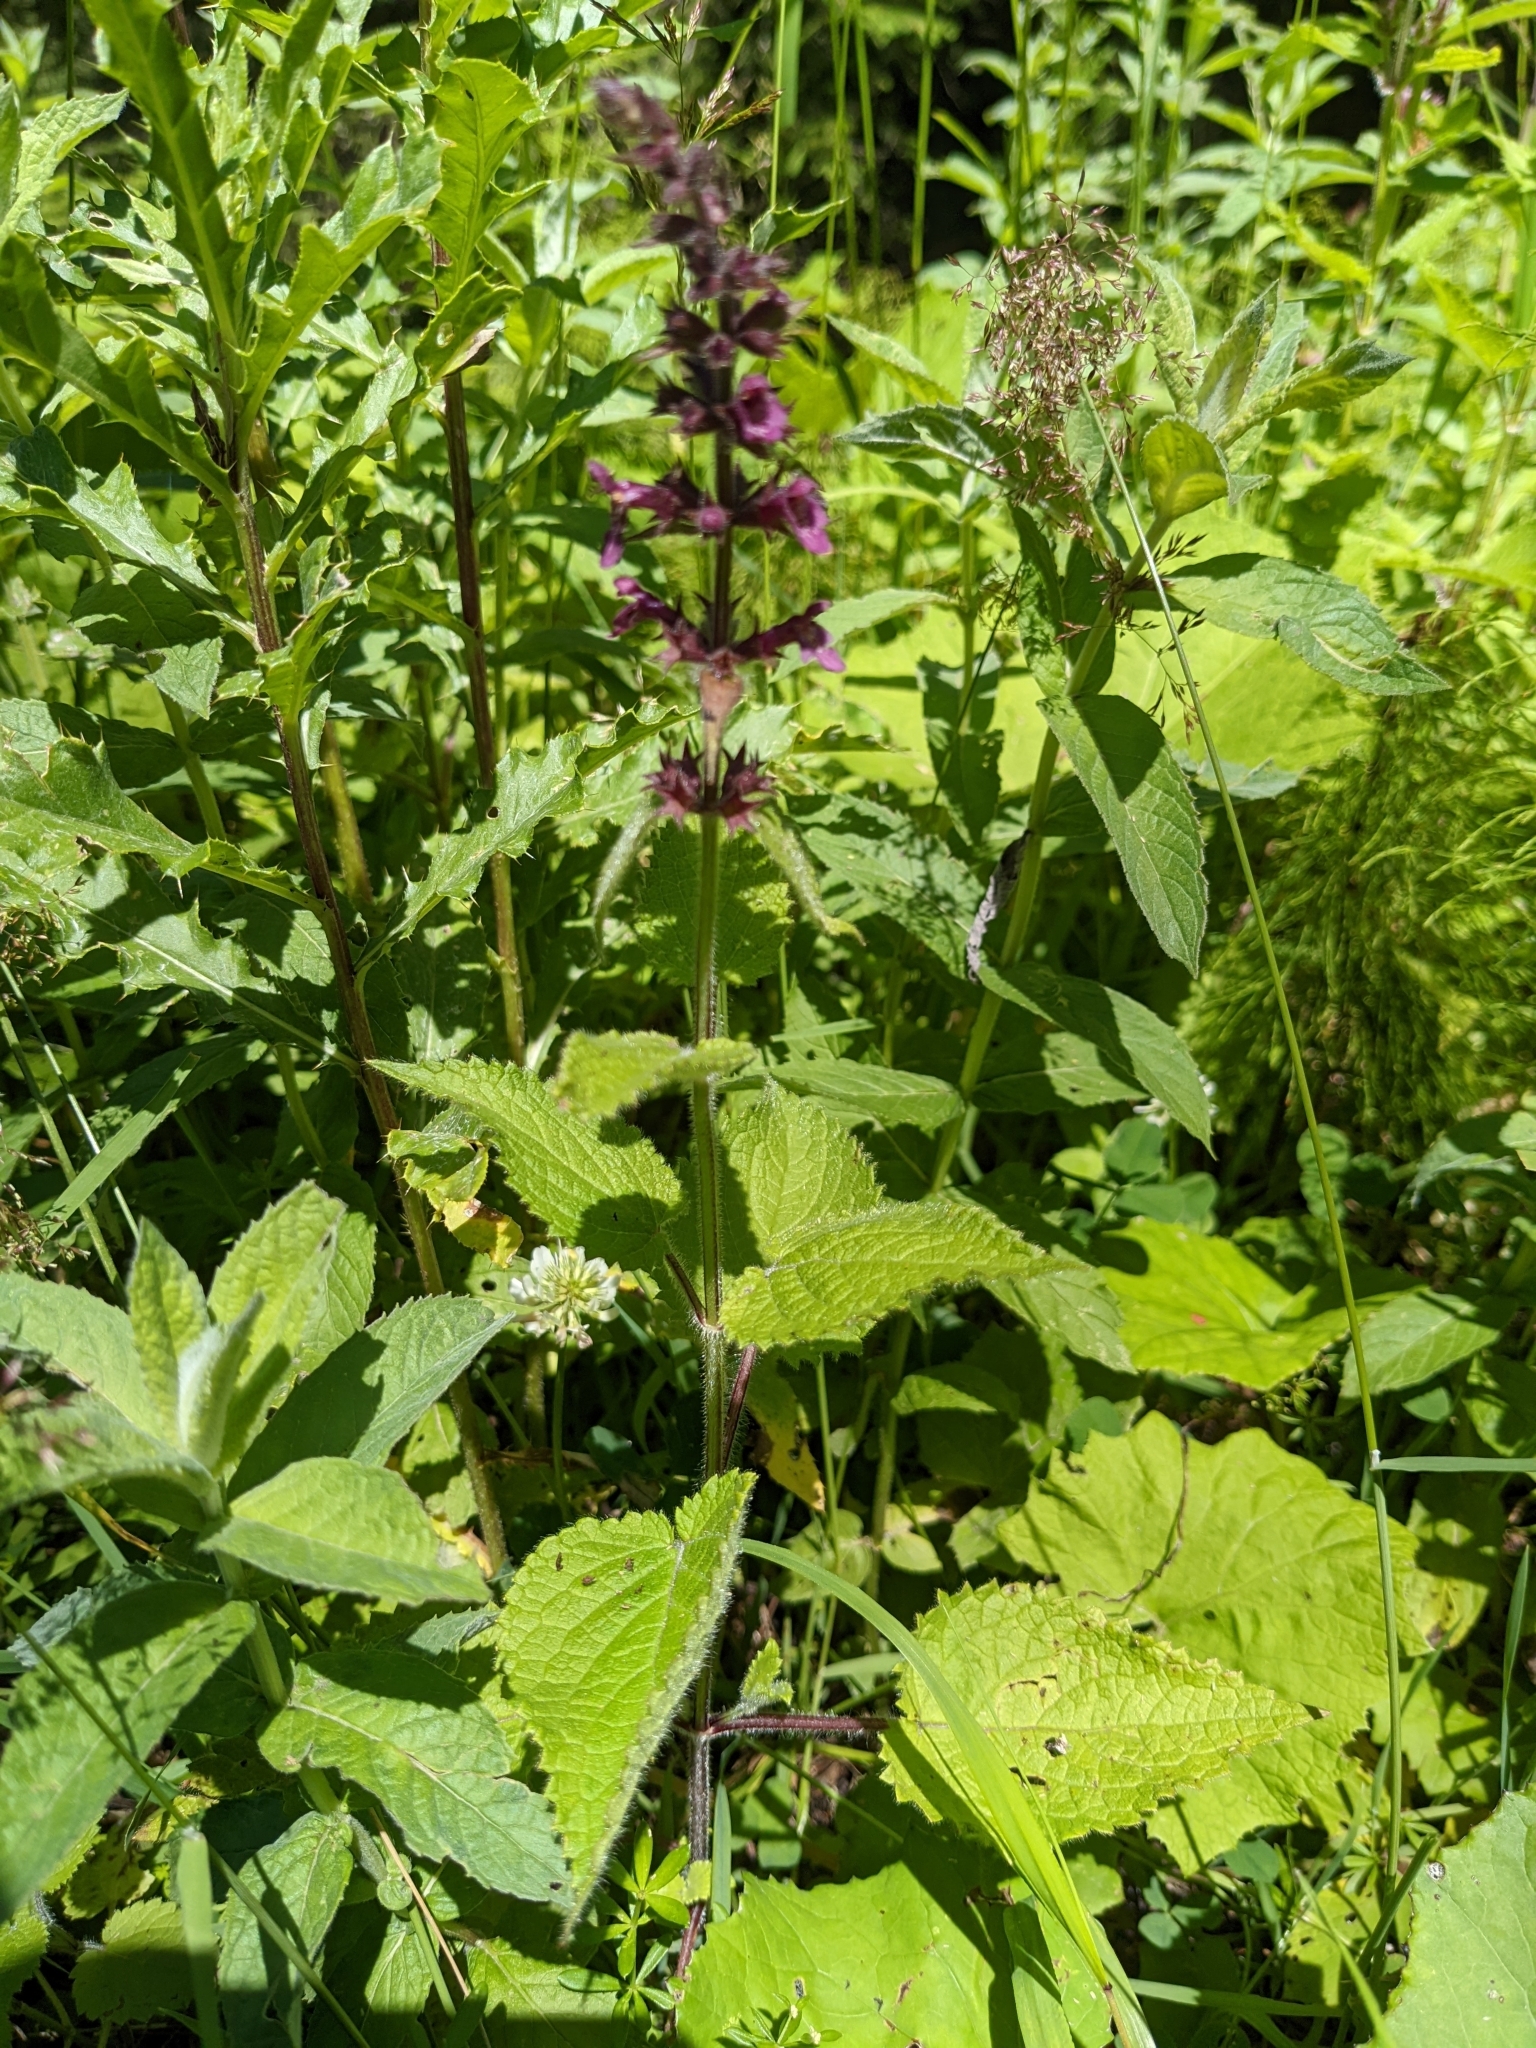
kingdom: Plantae
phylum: Tracheophyta
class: Magnoliopsida
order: Lamiales
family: Lamiaceae
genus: Stachys
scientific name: Stachys sylvatica
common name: Hedge woundwort
